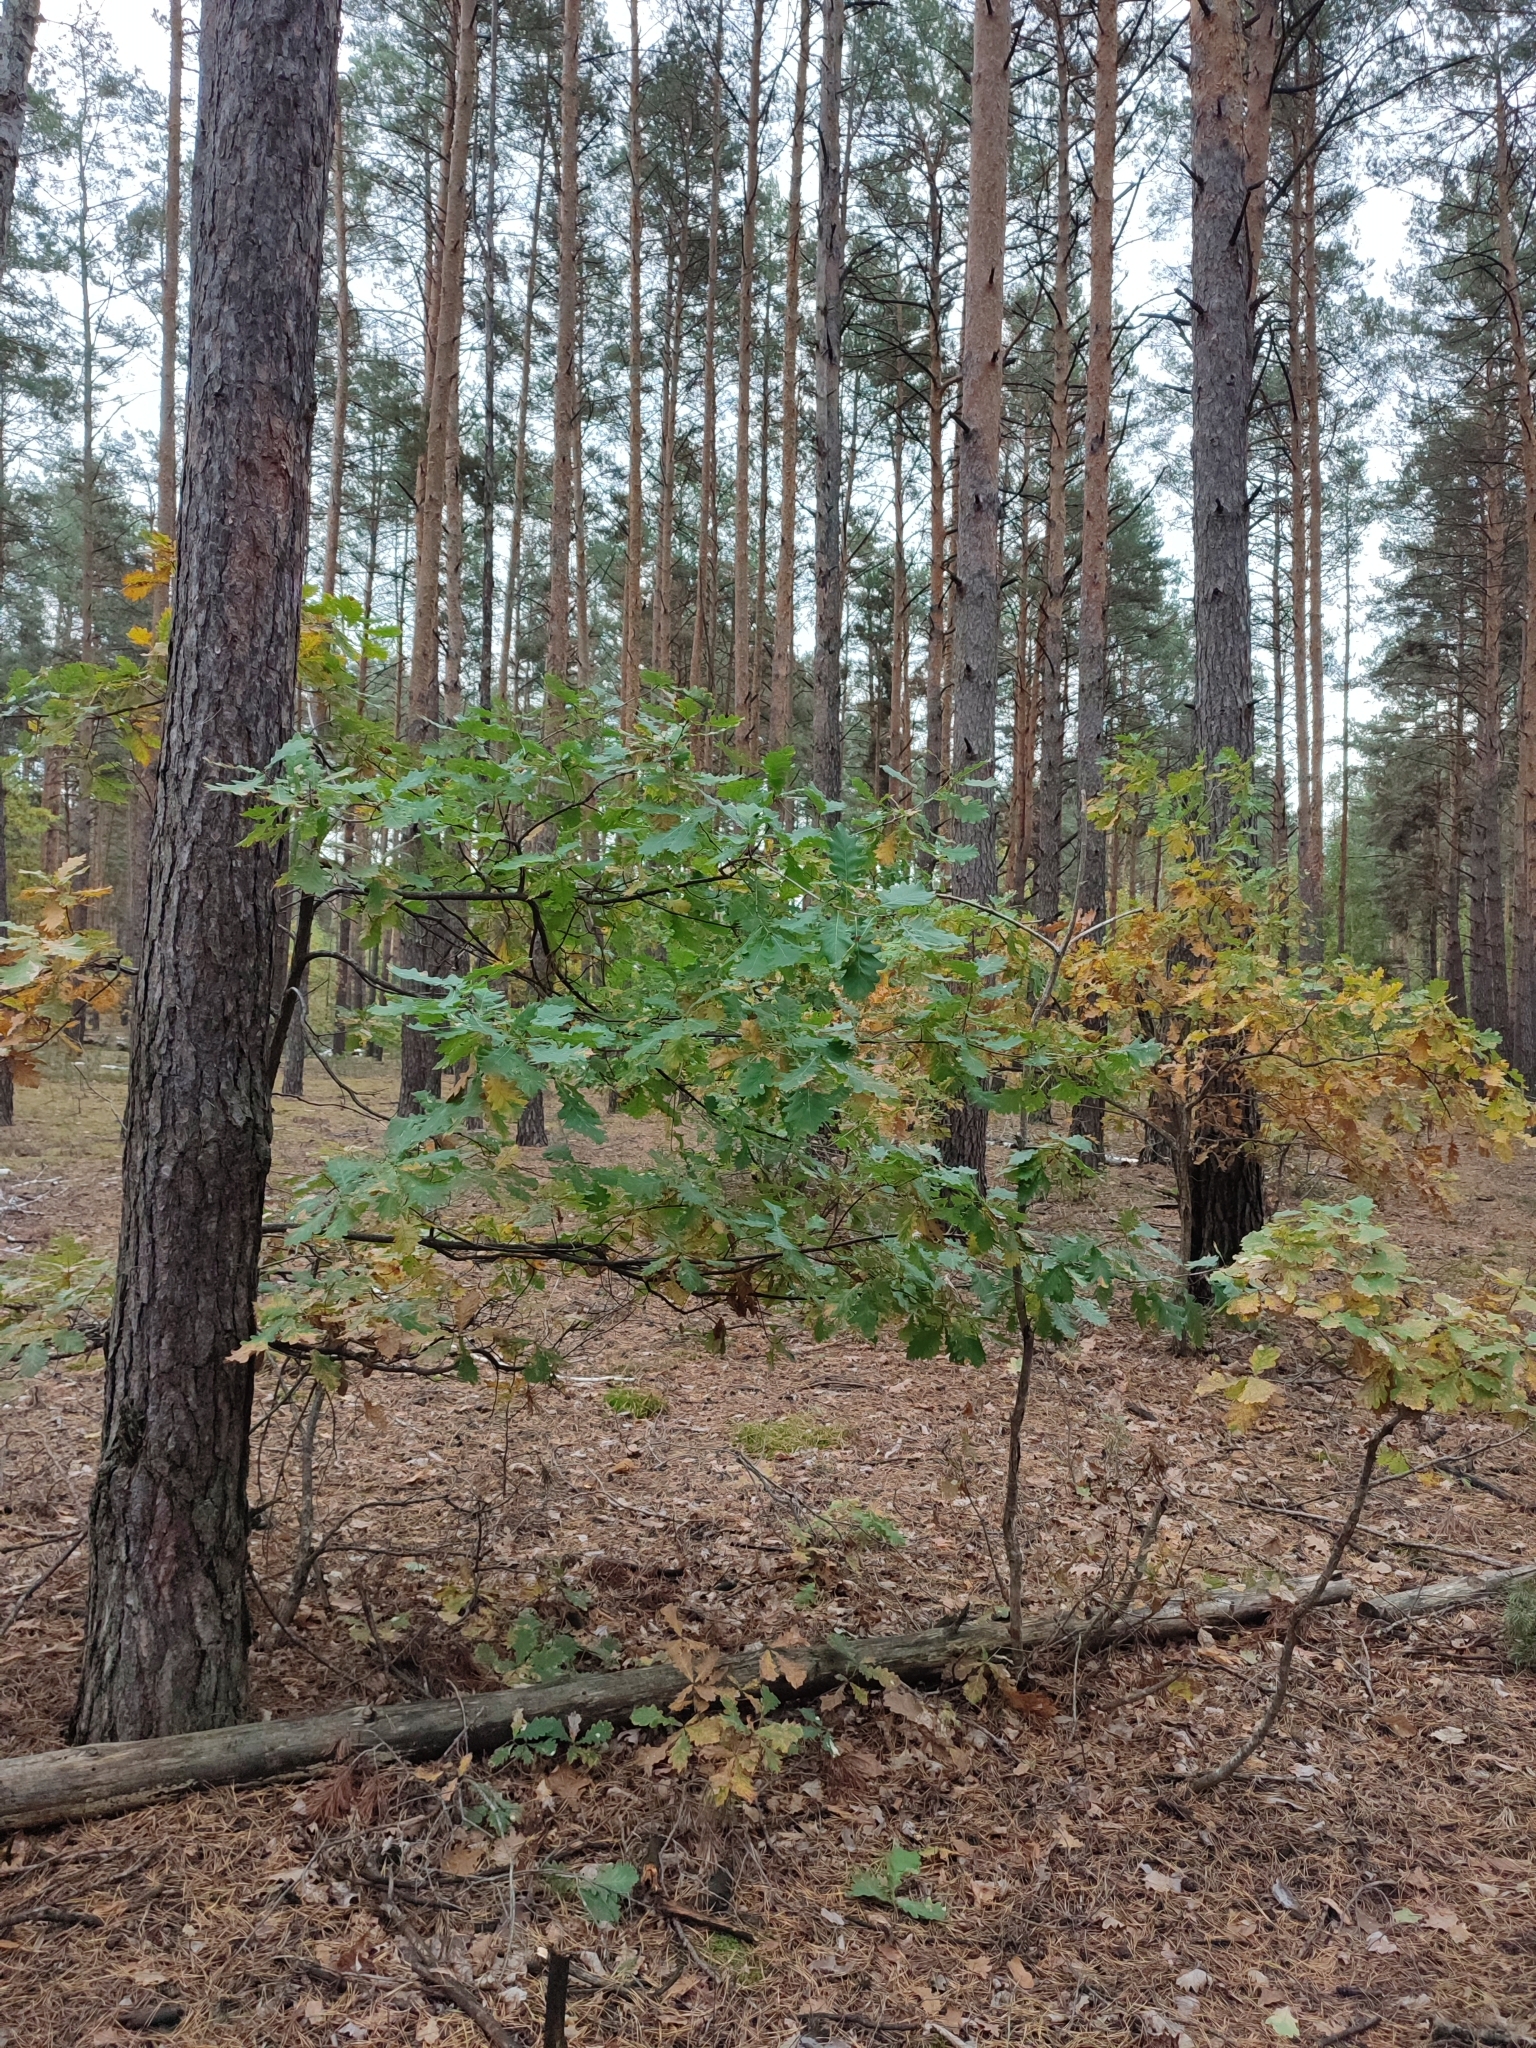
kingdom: Plantae
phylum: Tracheophyta
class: Magnoliopsida
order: Fagales
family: Fagaceae
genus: Quercus
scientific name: Quercus robur
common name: Pedunculate oak
